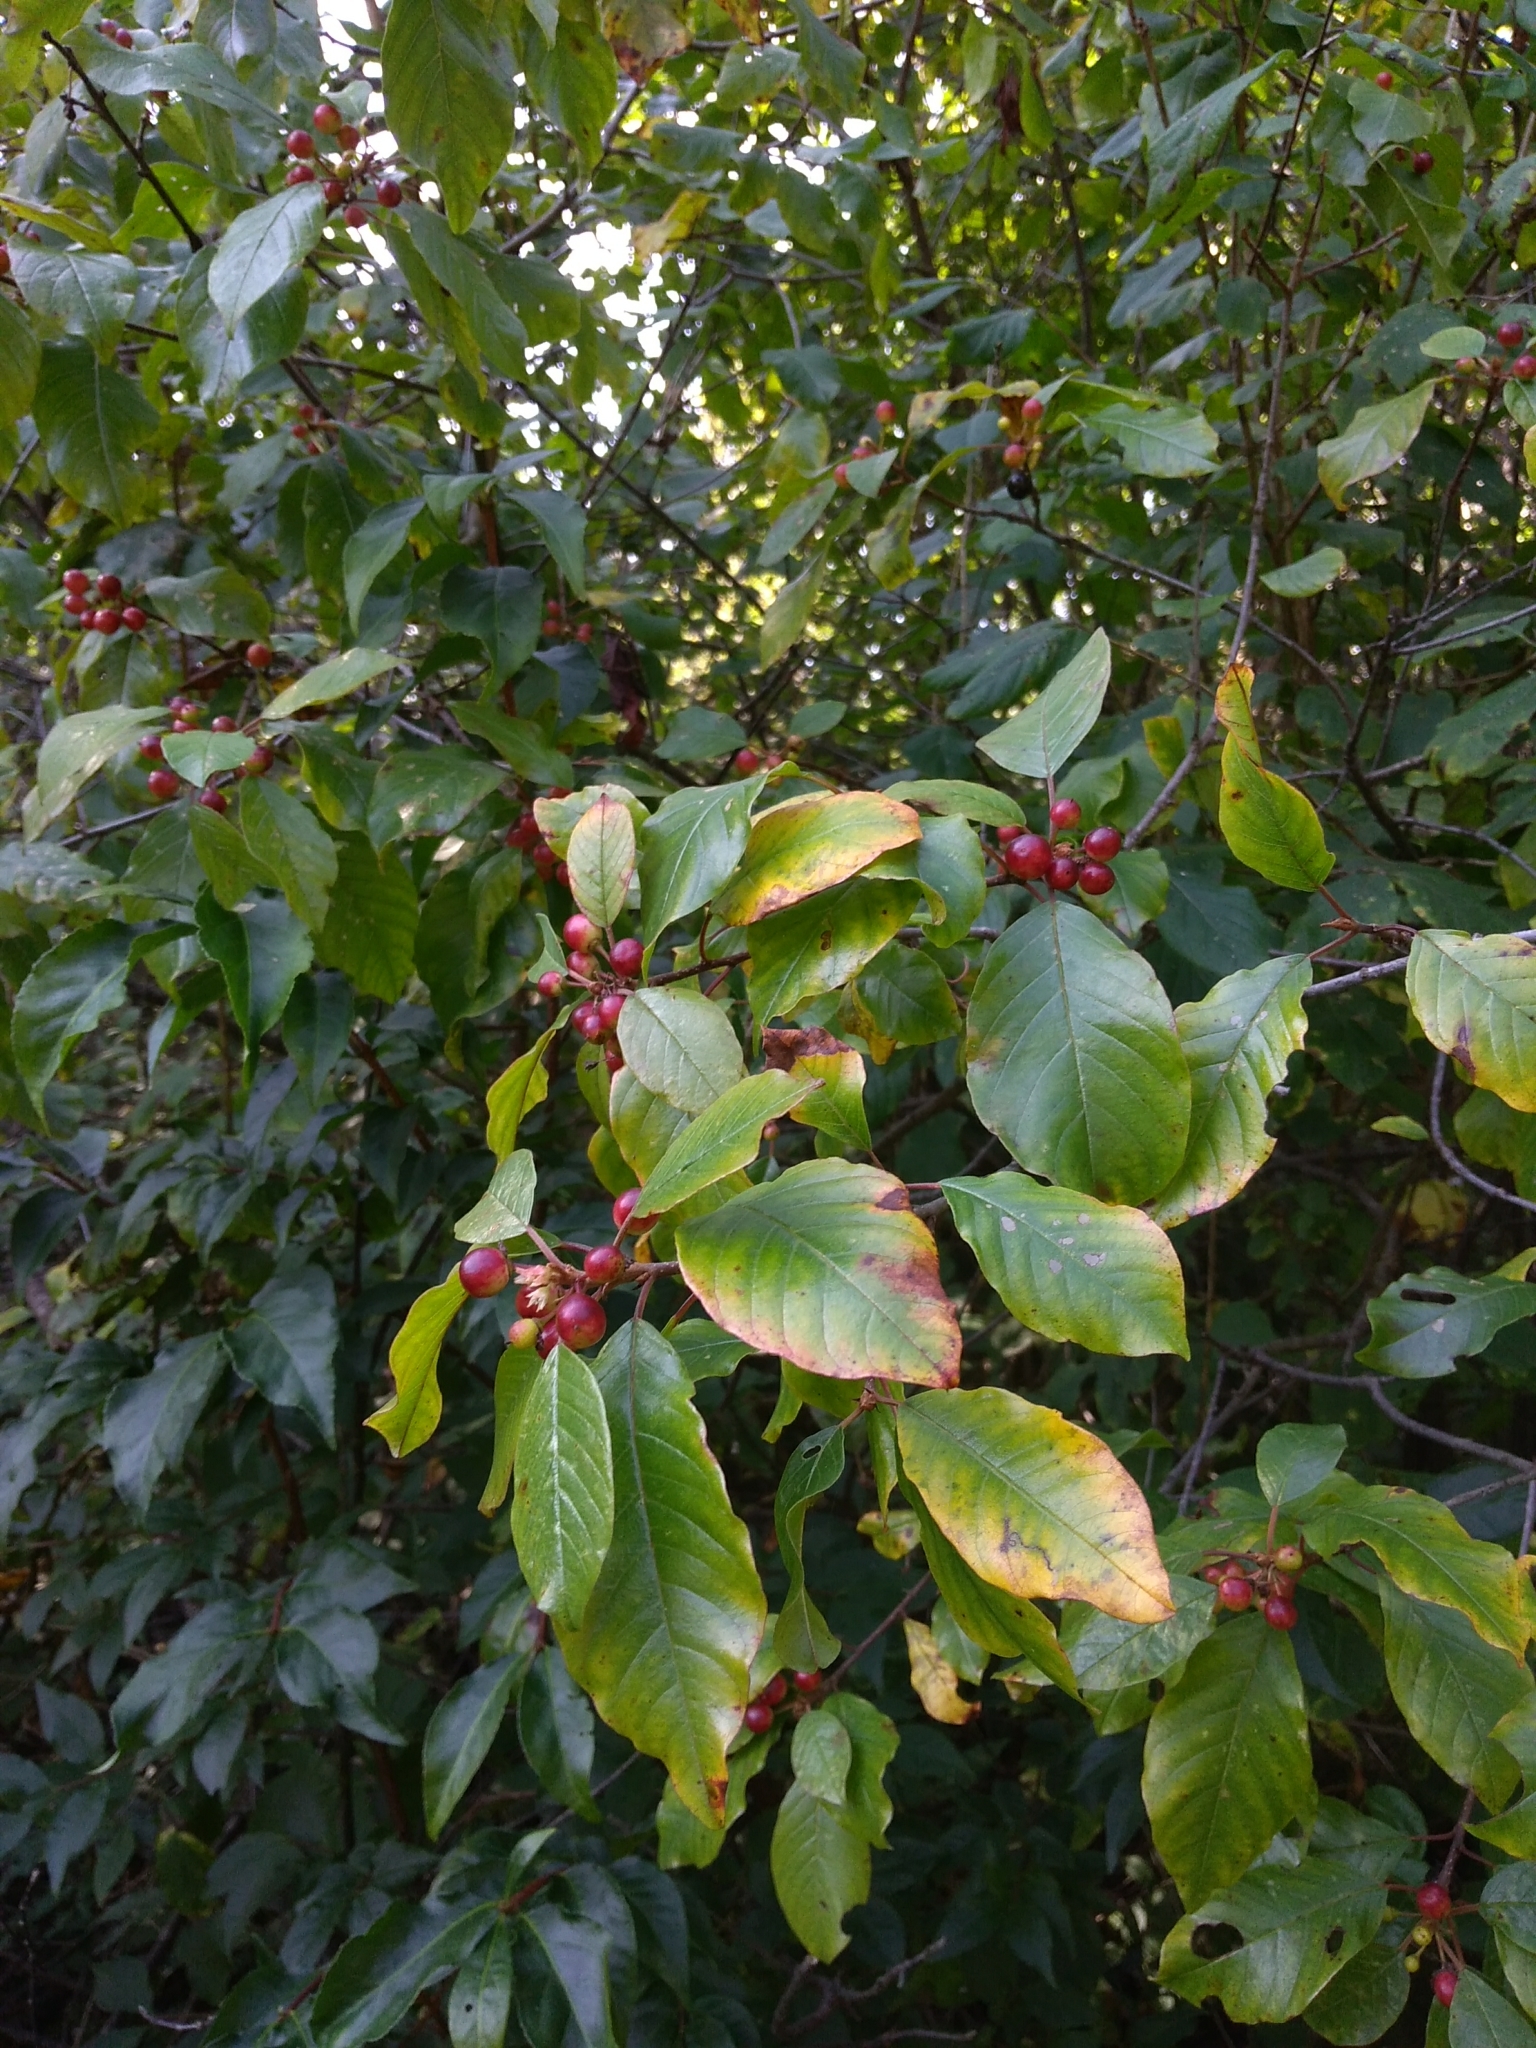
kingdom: Plantae
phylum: Tracheophyta
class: Magnoliopsida
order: Rosales
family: Rhamnaceae
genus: Frangula
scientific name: Frangula alnus
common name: Alder buckthorn
